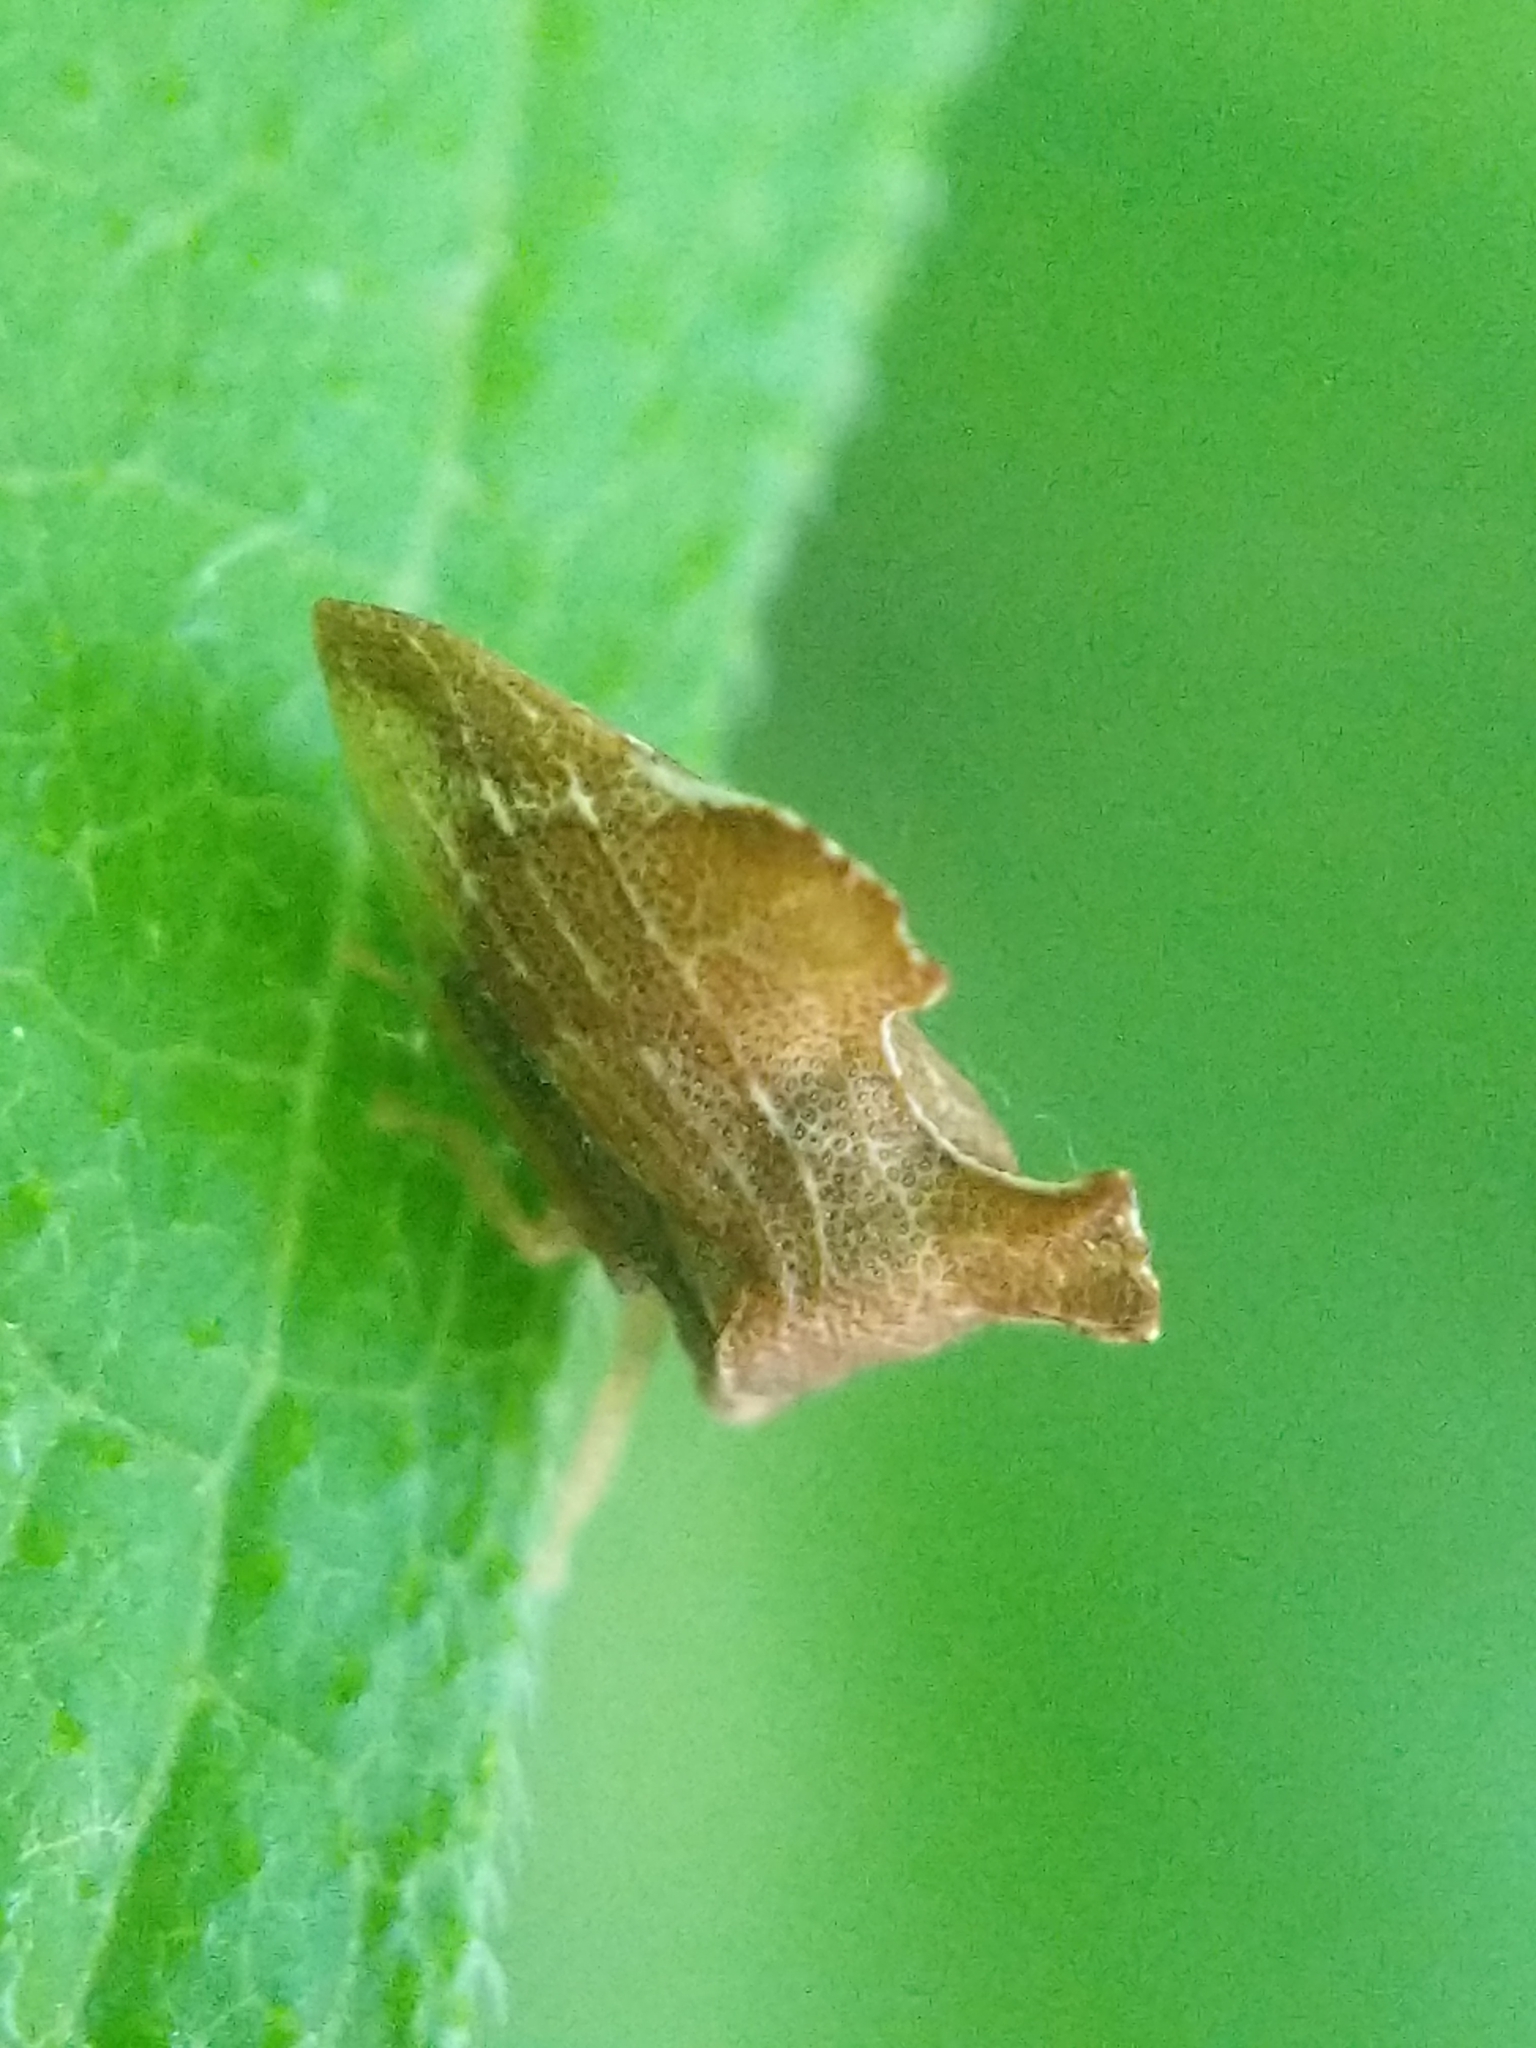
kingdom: Animalia
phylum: Arthropoda
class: Insecta
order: Hemiptera
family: Membracidae
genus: Entylia
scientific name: Entylia carinata
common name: Keeled treehopper
